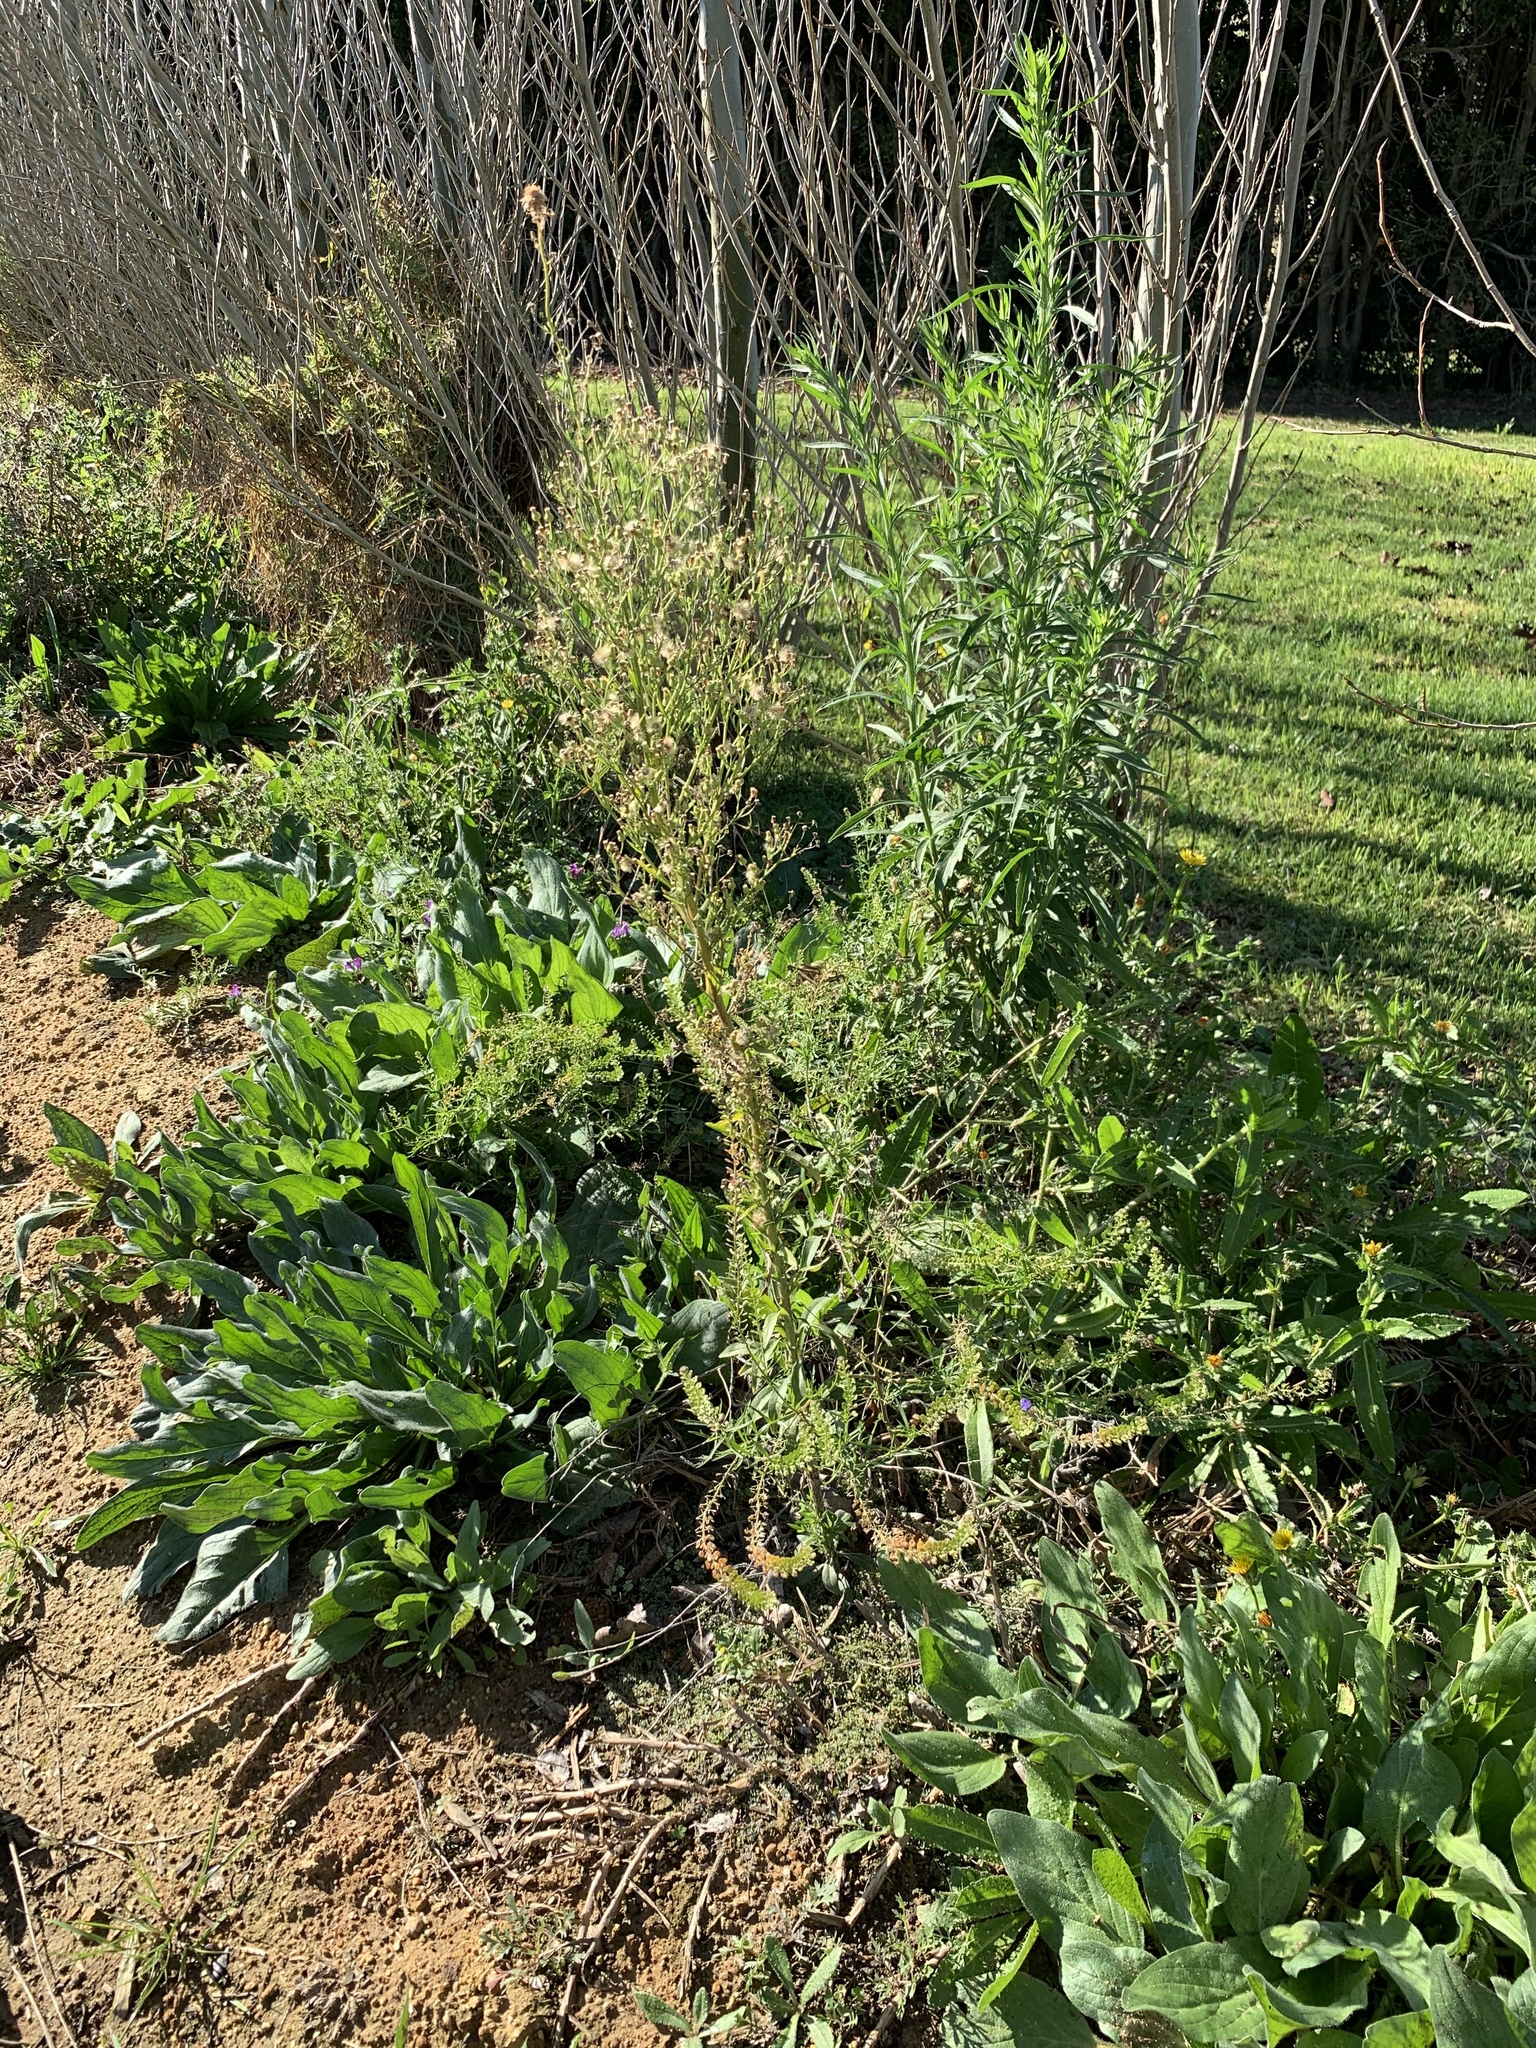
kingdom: Plantae
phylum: Tracheophyta
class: Magnoliopsida
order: Asterales
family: Asteraceae
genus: Erigeron
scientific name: Erigeron sumatrensis
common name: Daisy
